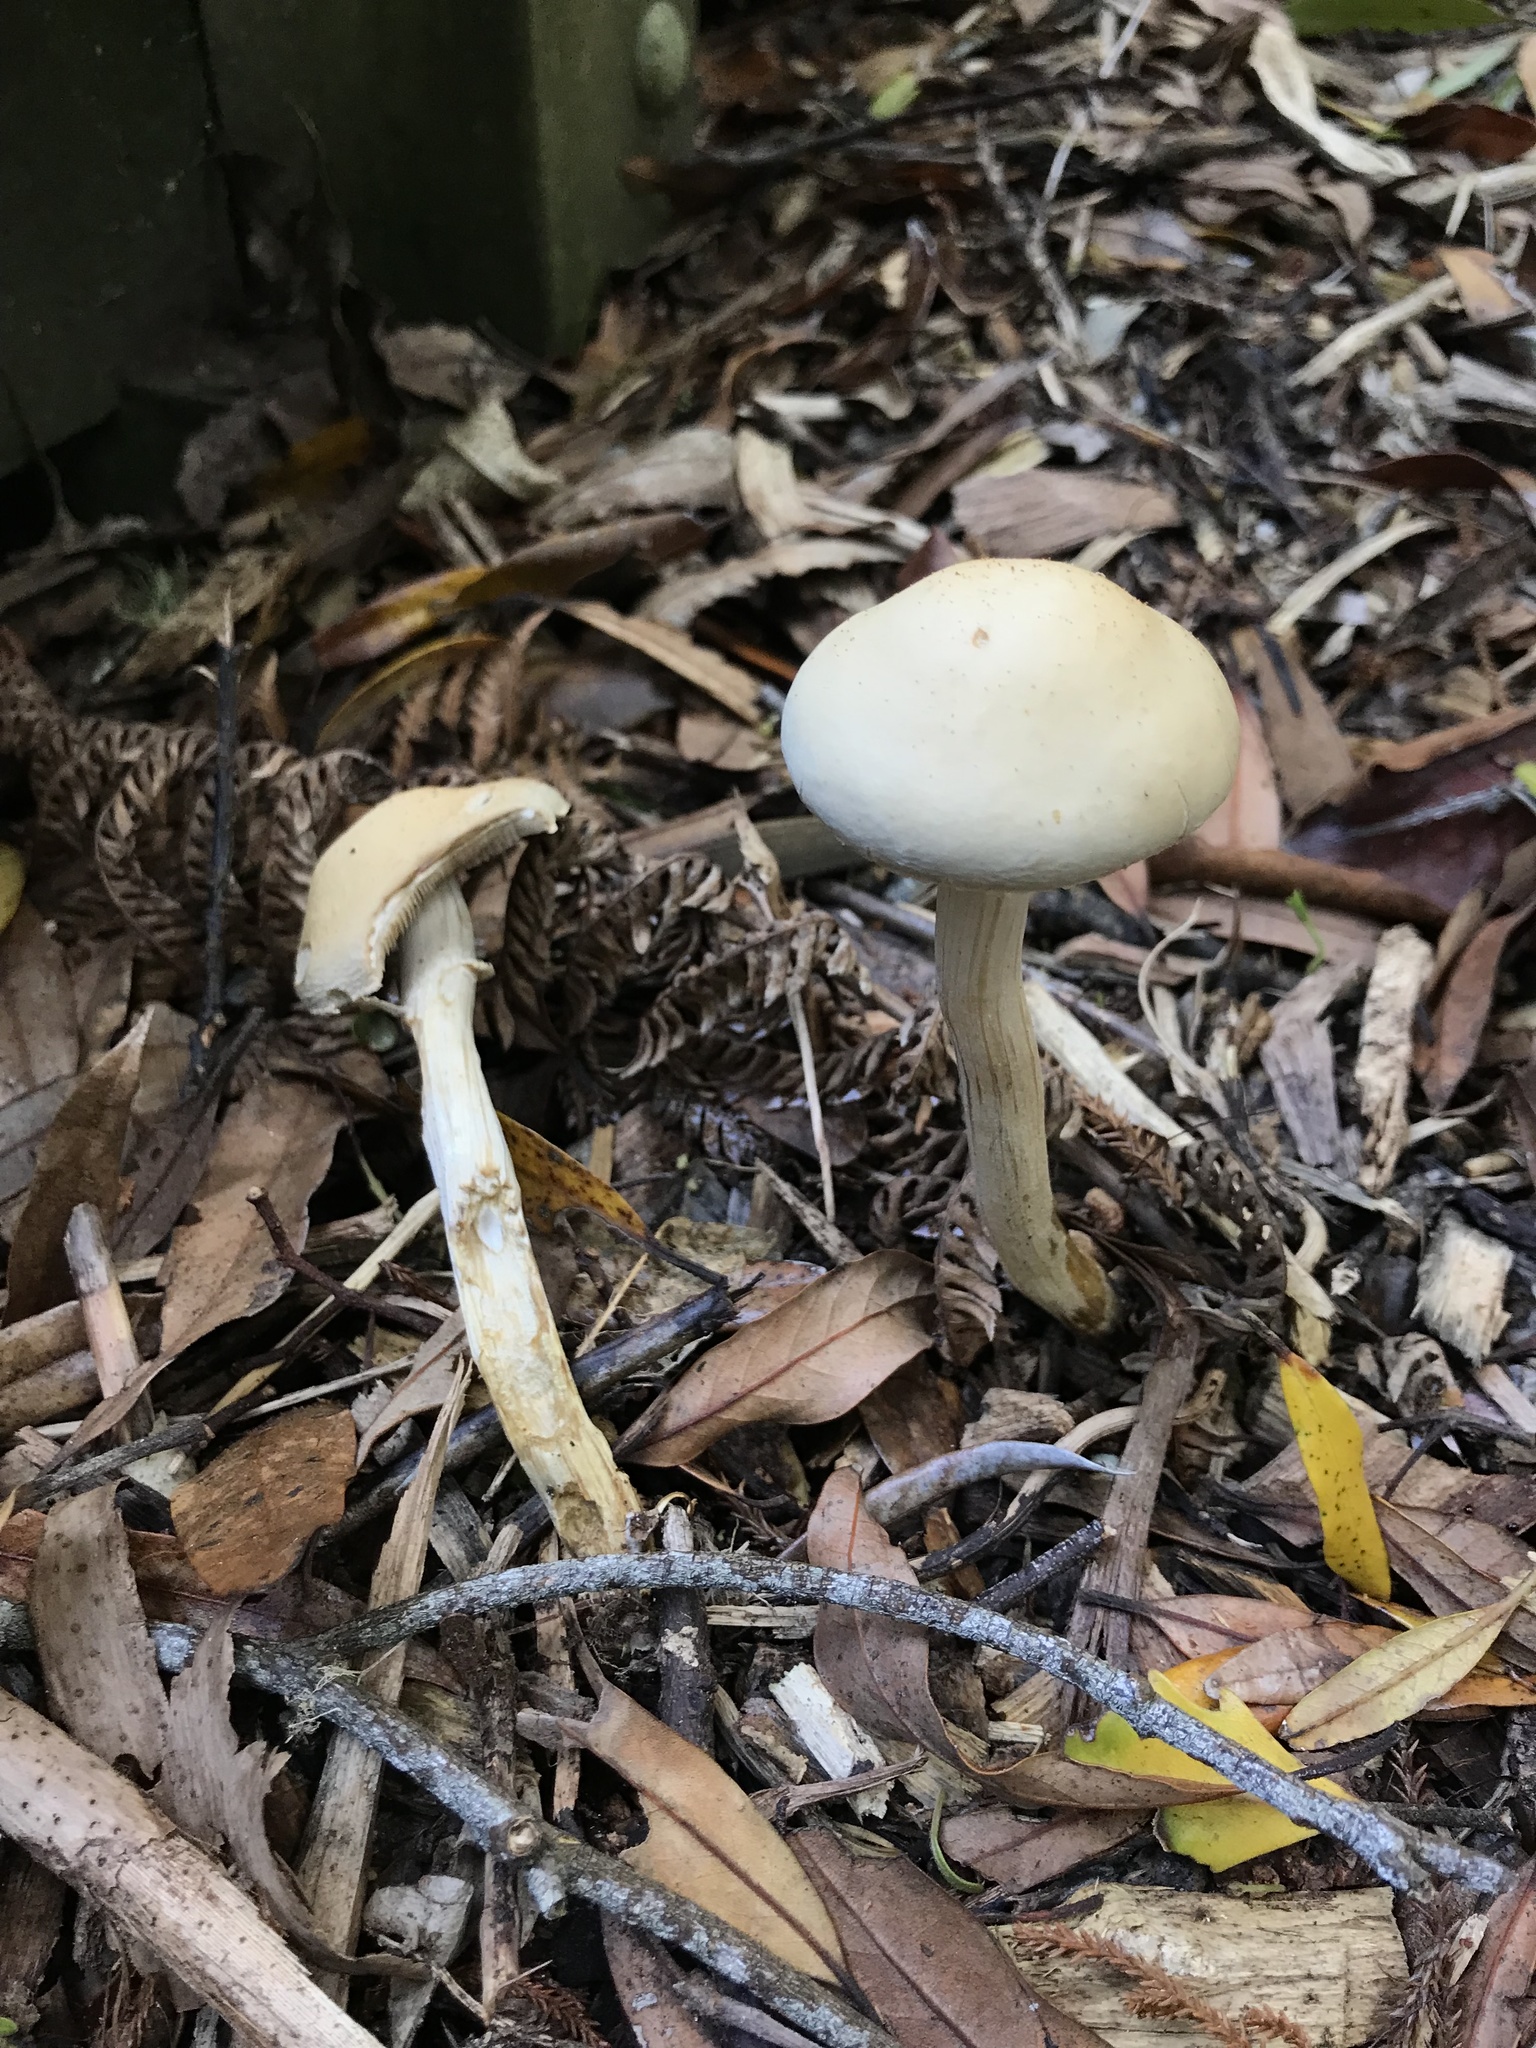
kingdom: Fungi
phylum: Basidiomycota
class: Agaricomycetes
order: Agaricales
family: Strophariaceae
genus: Agrocybe
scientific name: Agrocybe praecox
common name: Spring fieldcap
